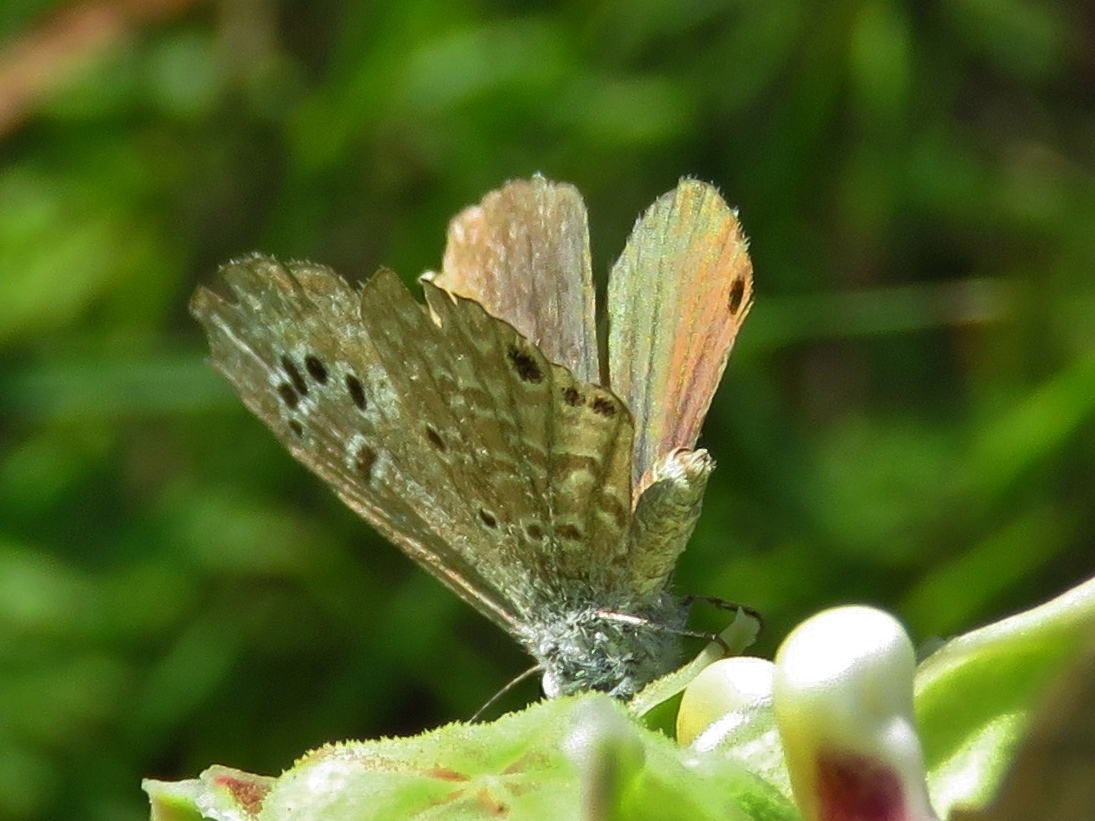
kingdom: Animalia
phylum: Arthropoda
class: Insecta
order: Lepidoptera
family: Lycaenidae
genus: Echinargus
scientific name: Echinargus isola
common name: Reakirt's blue
